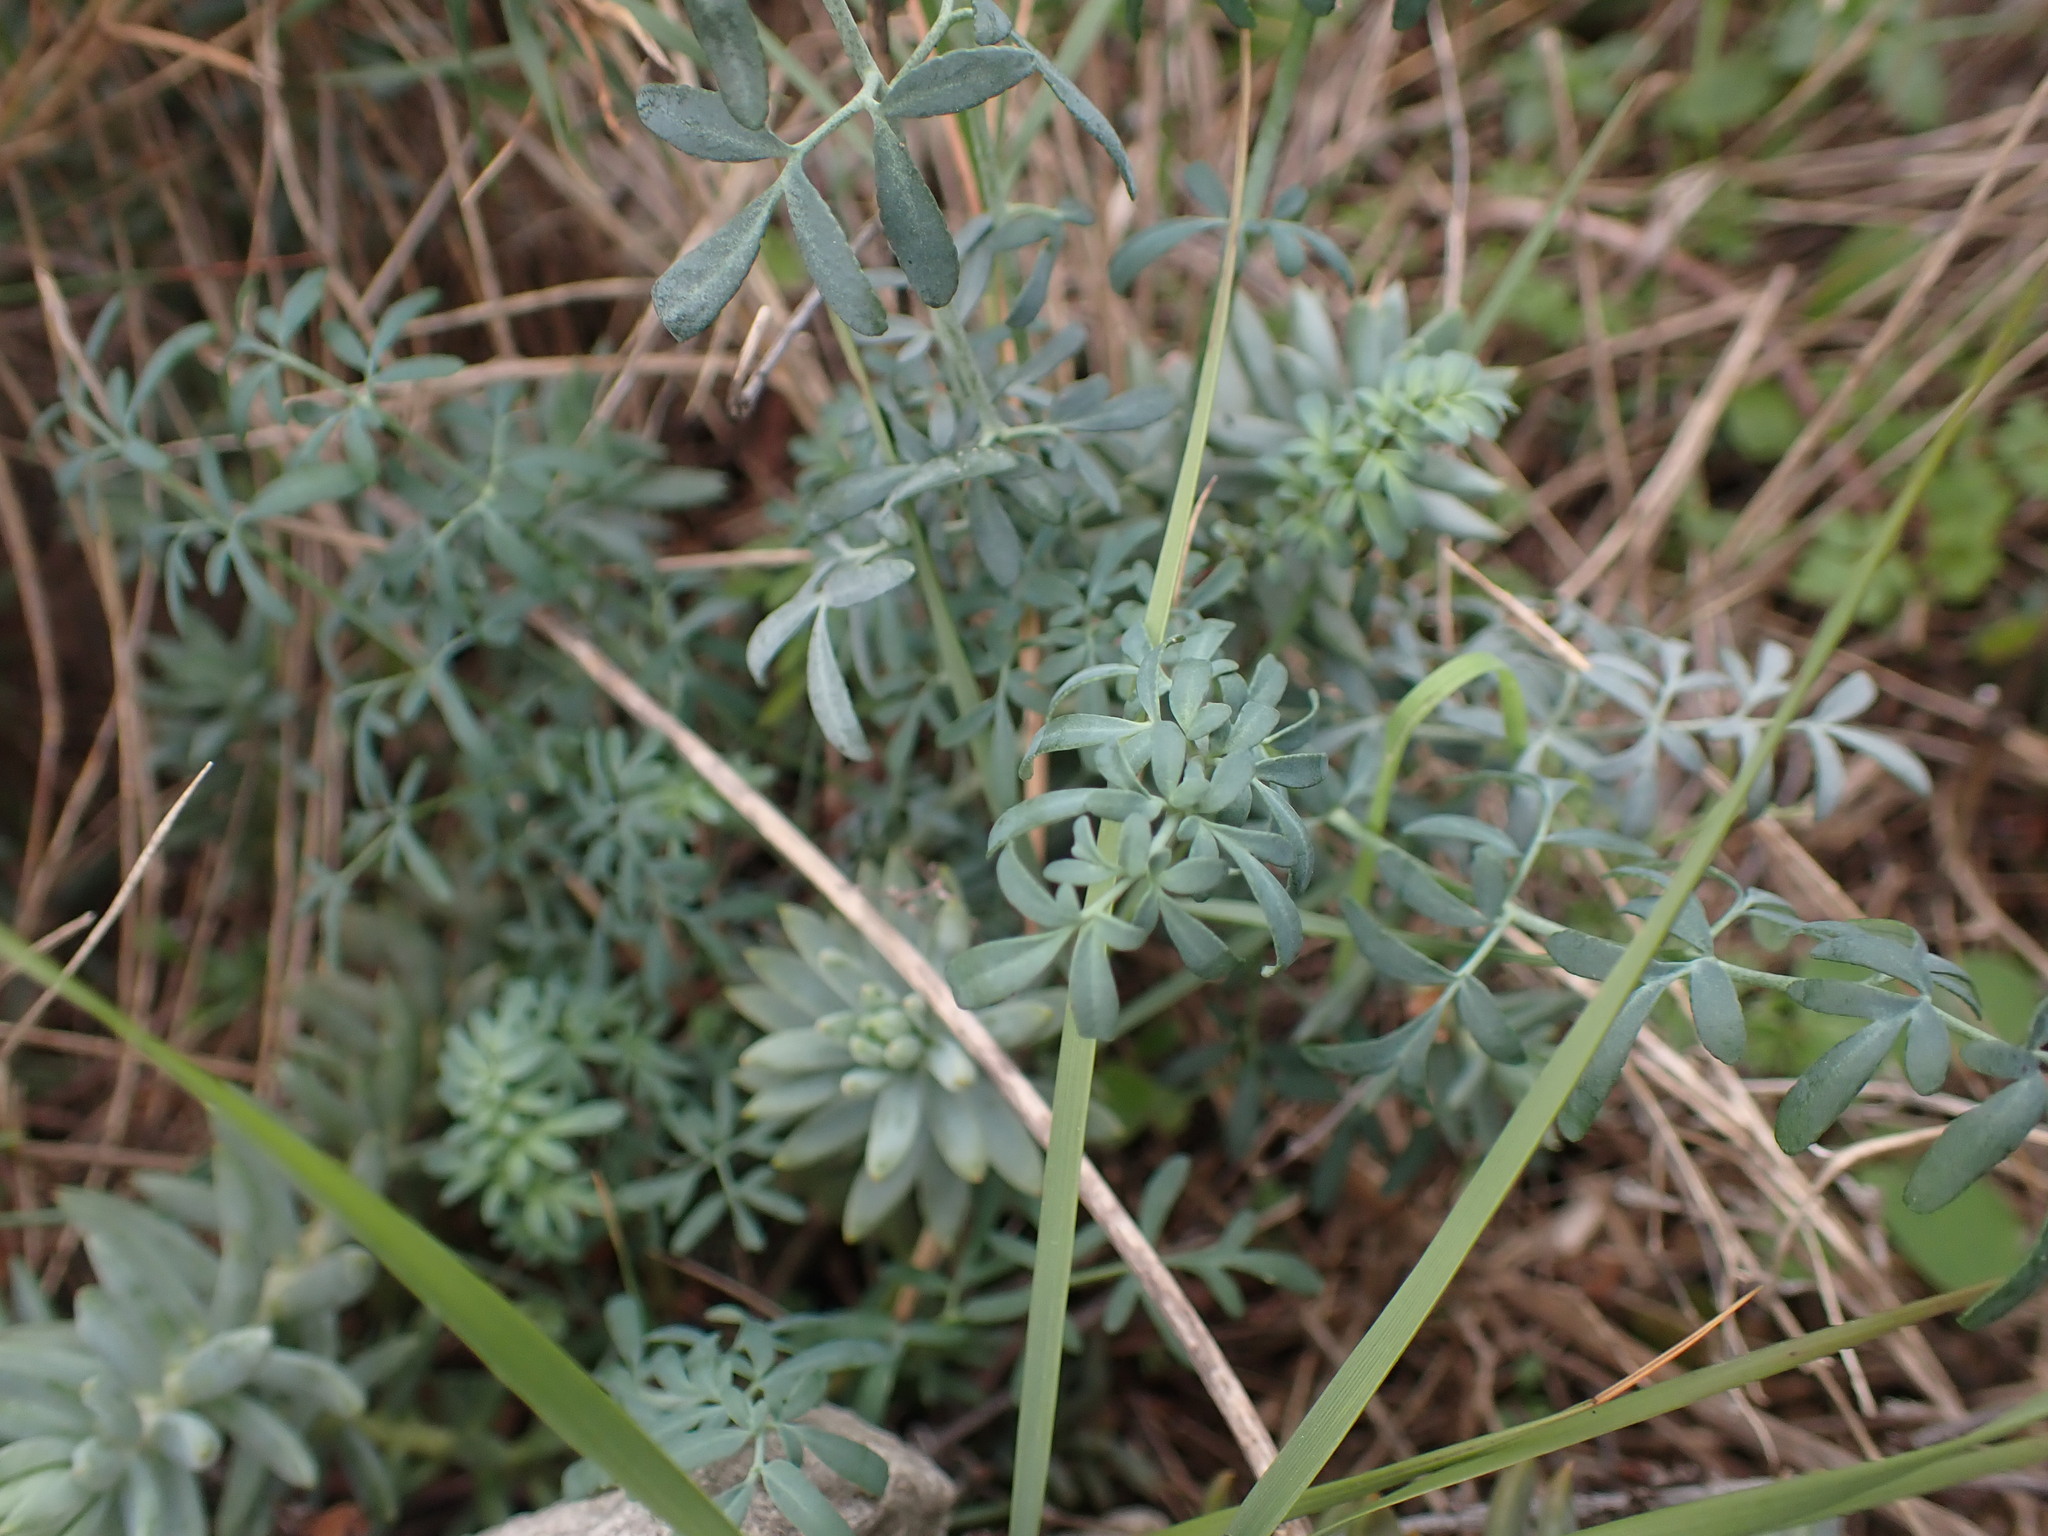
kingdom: Plantae
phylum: Tracheophyta
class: Magnoliopsida
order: Sapindales
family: Rutaceae
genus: Ruta
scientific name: Ruta angustifolia
